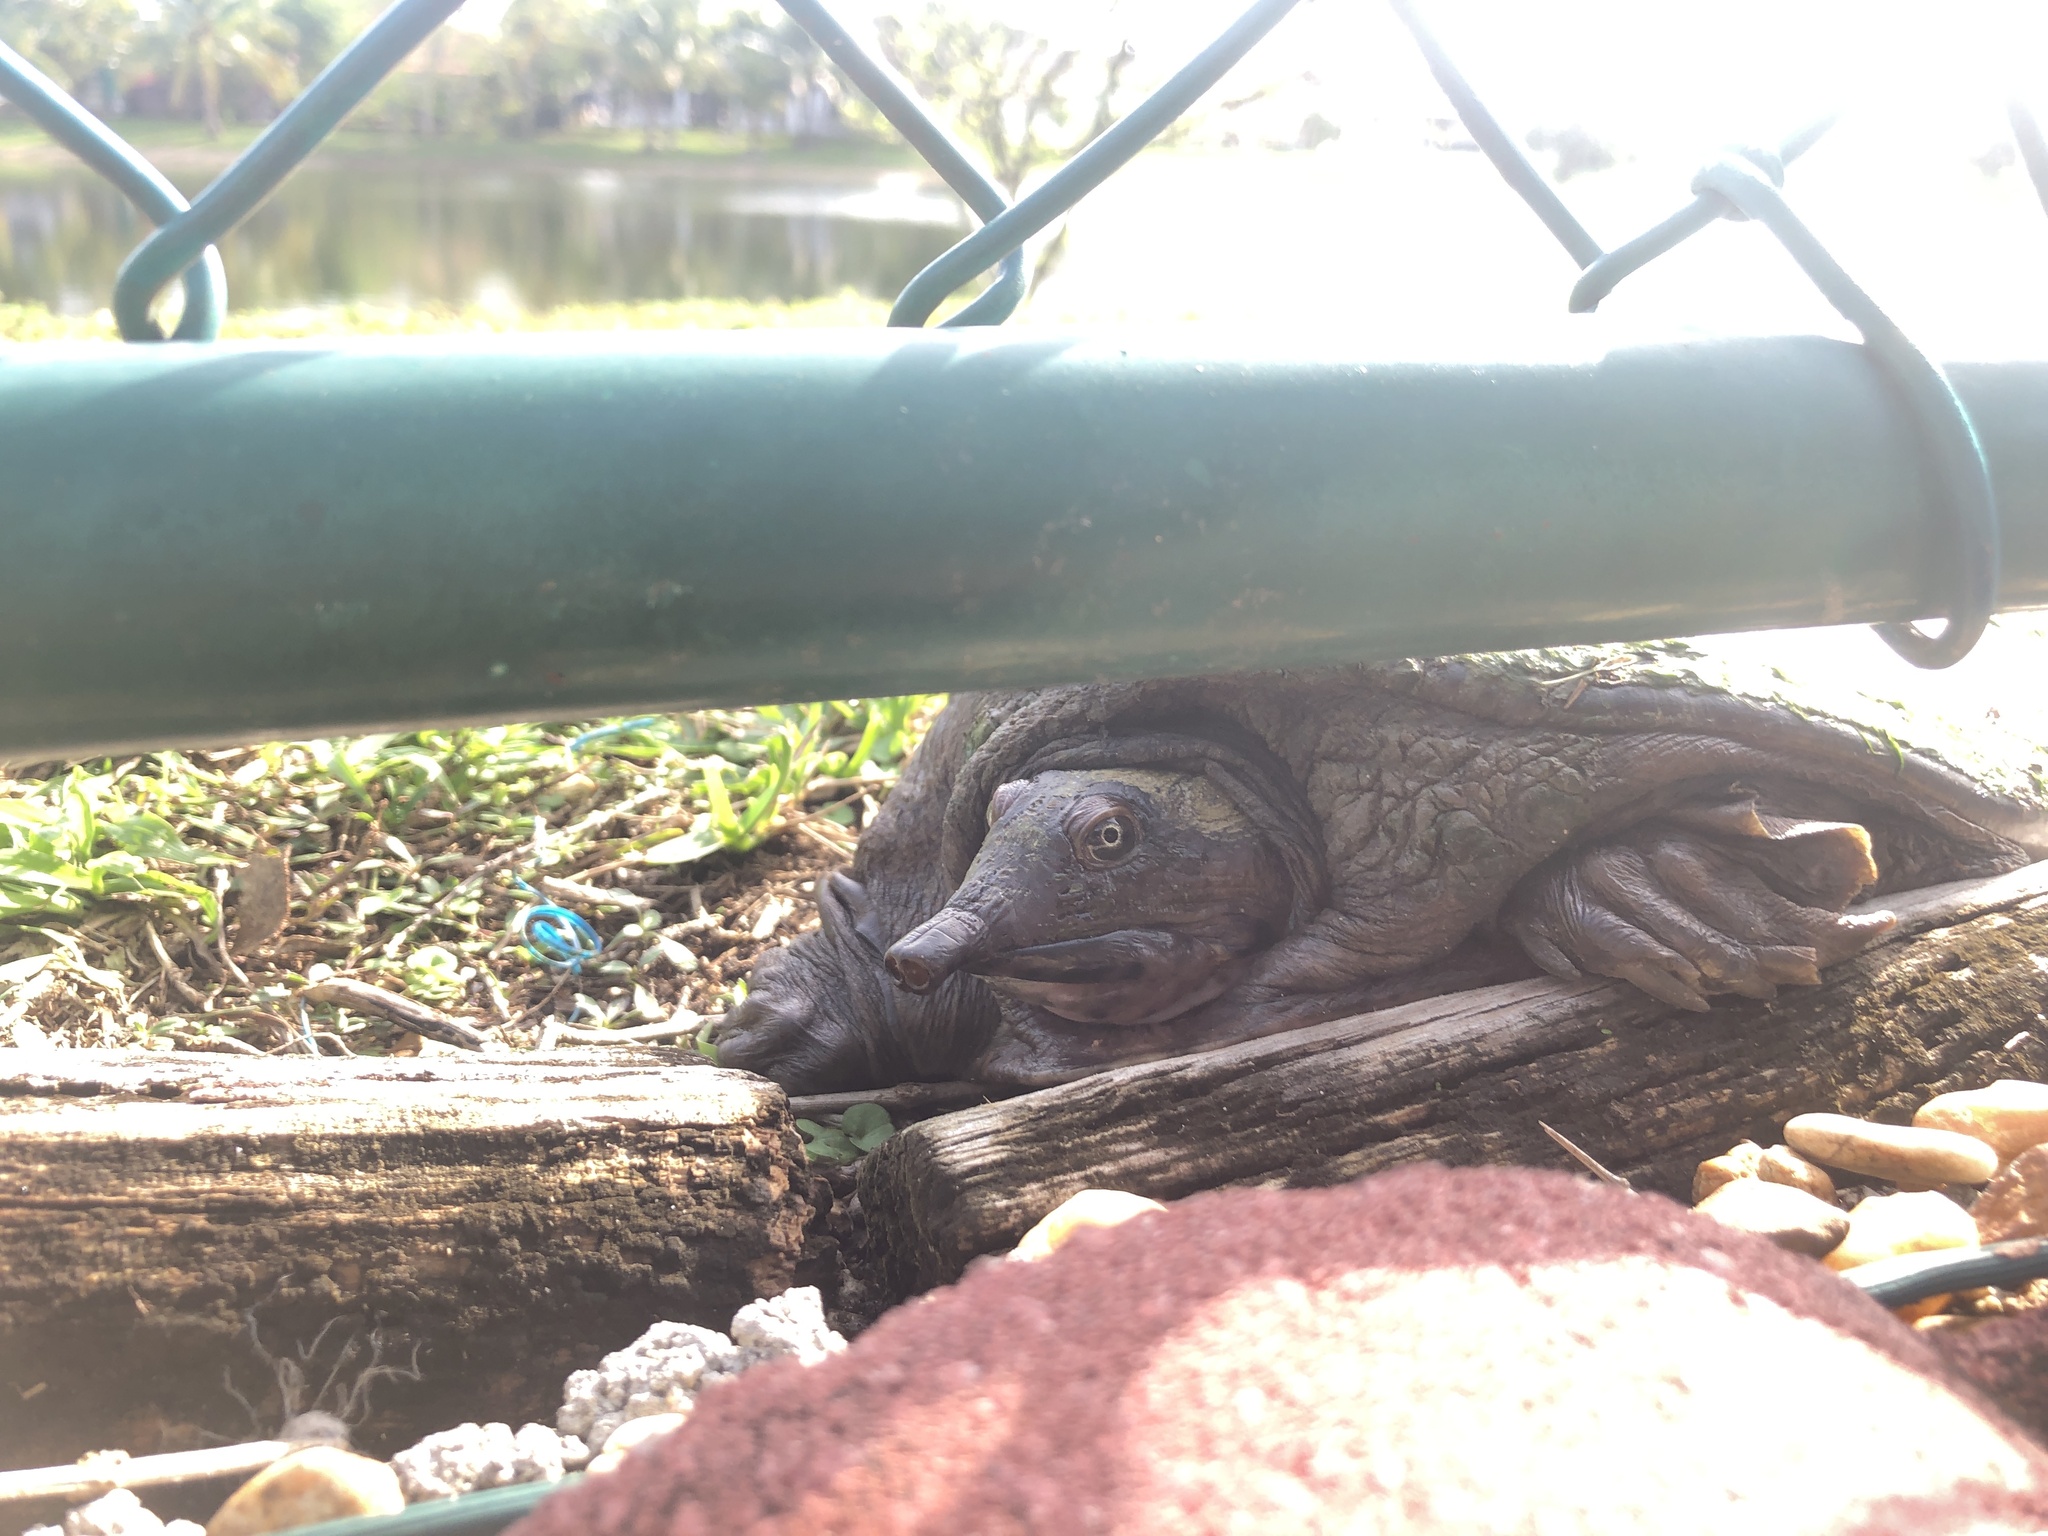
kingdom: Animalia
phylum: Chordata
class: Testudines
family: Trionychidae
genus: Apalone
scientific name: Apalone ferox
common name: Florida softshell turtle
